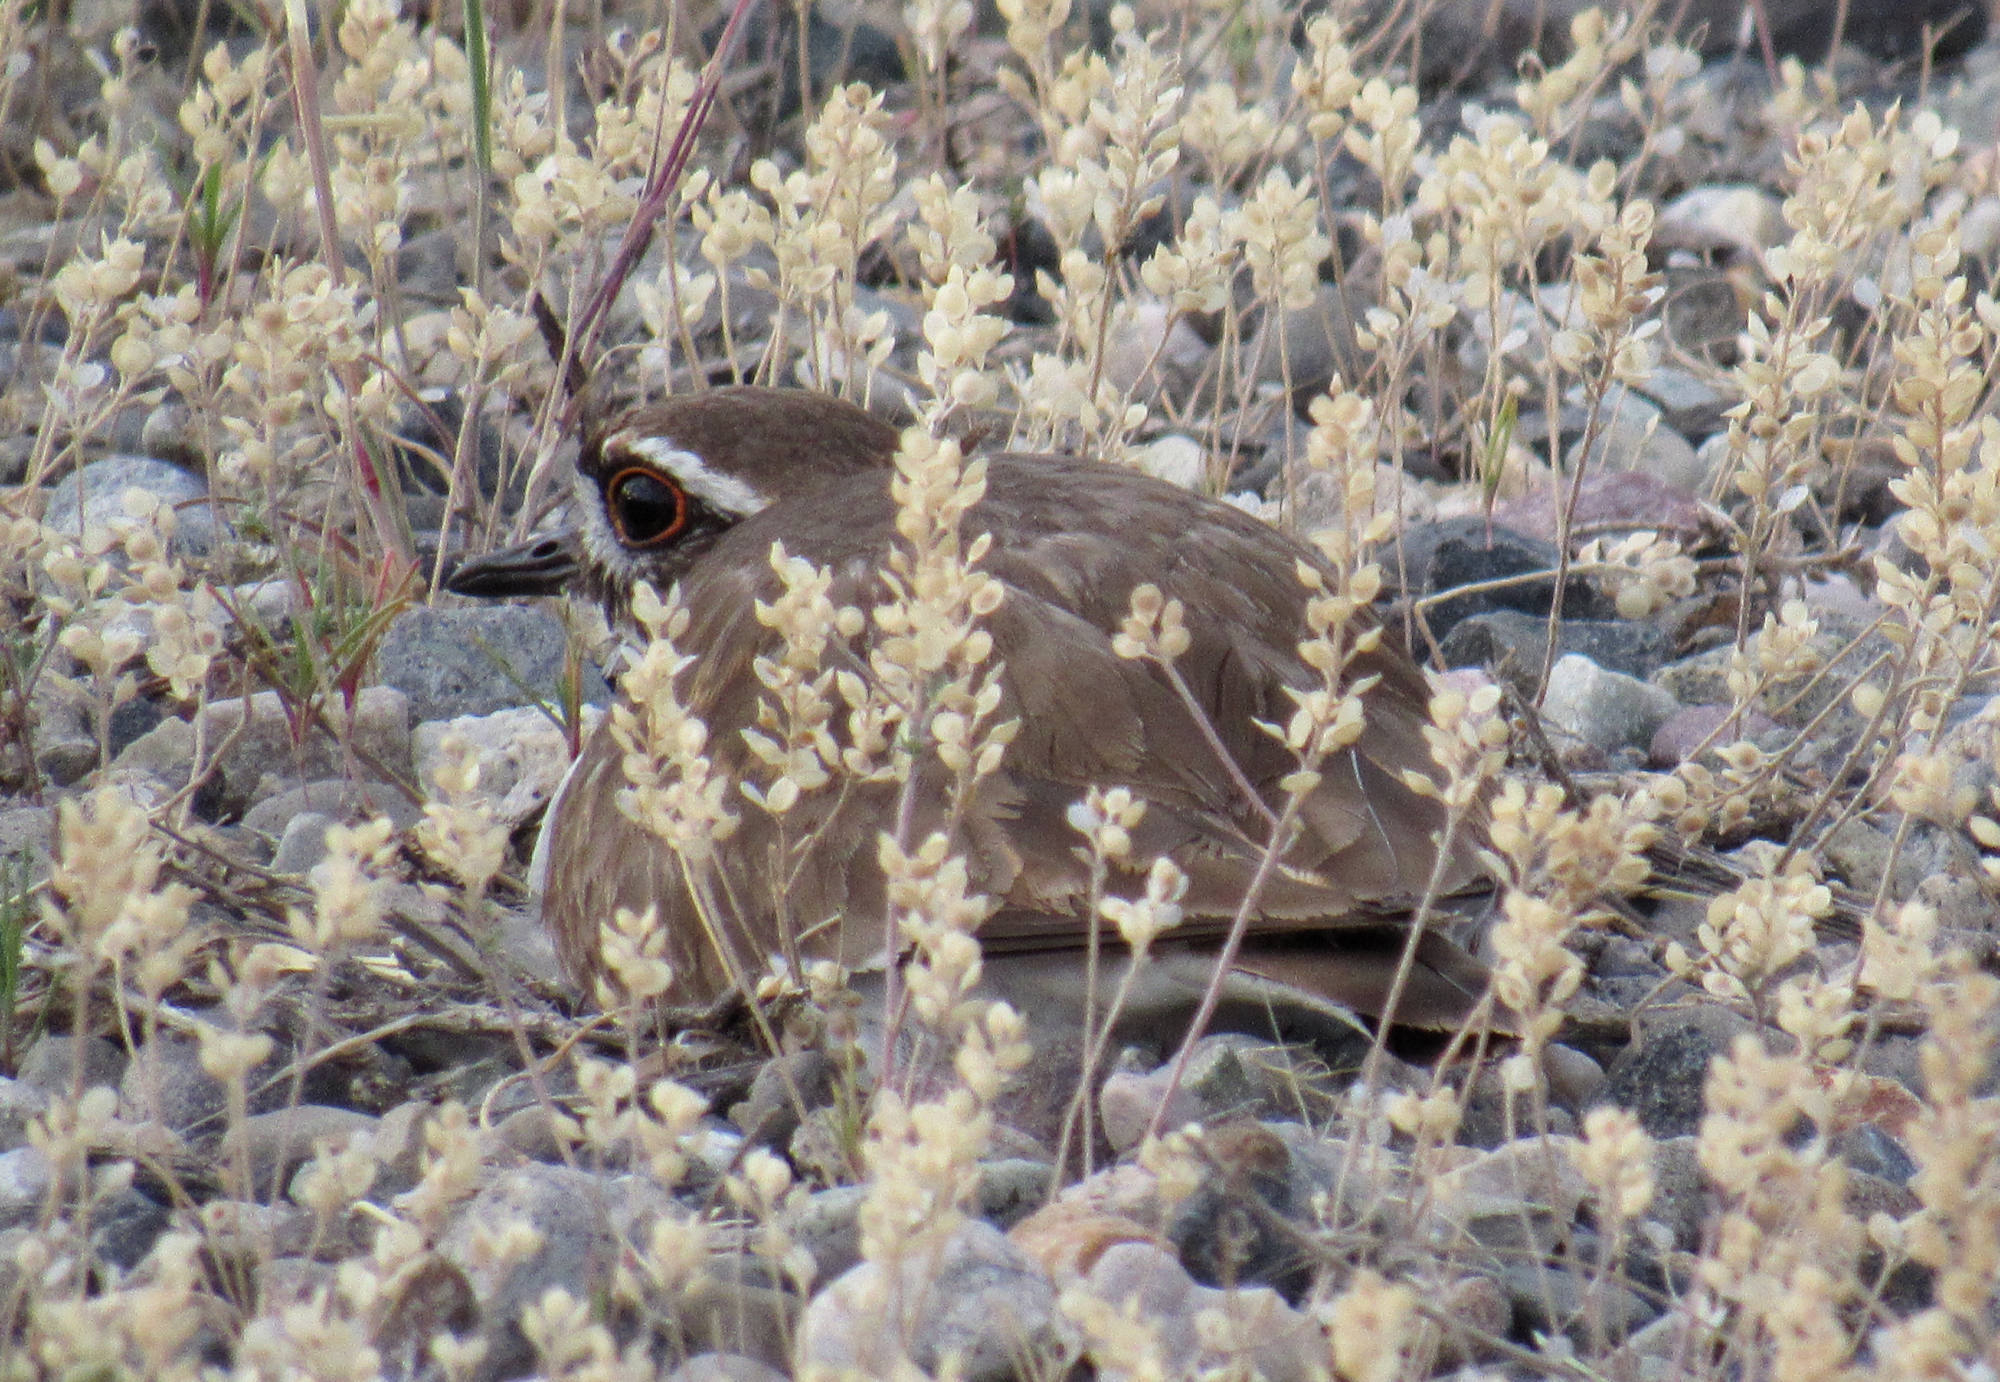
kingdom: Animalia
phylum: Chordata
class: Aves
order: Charadriiformes
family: Charadriidae
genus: Charadrius
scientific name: Charadrius vociferus
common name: Killdeer
